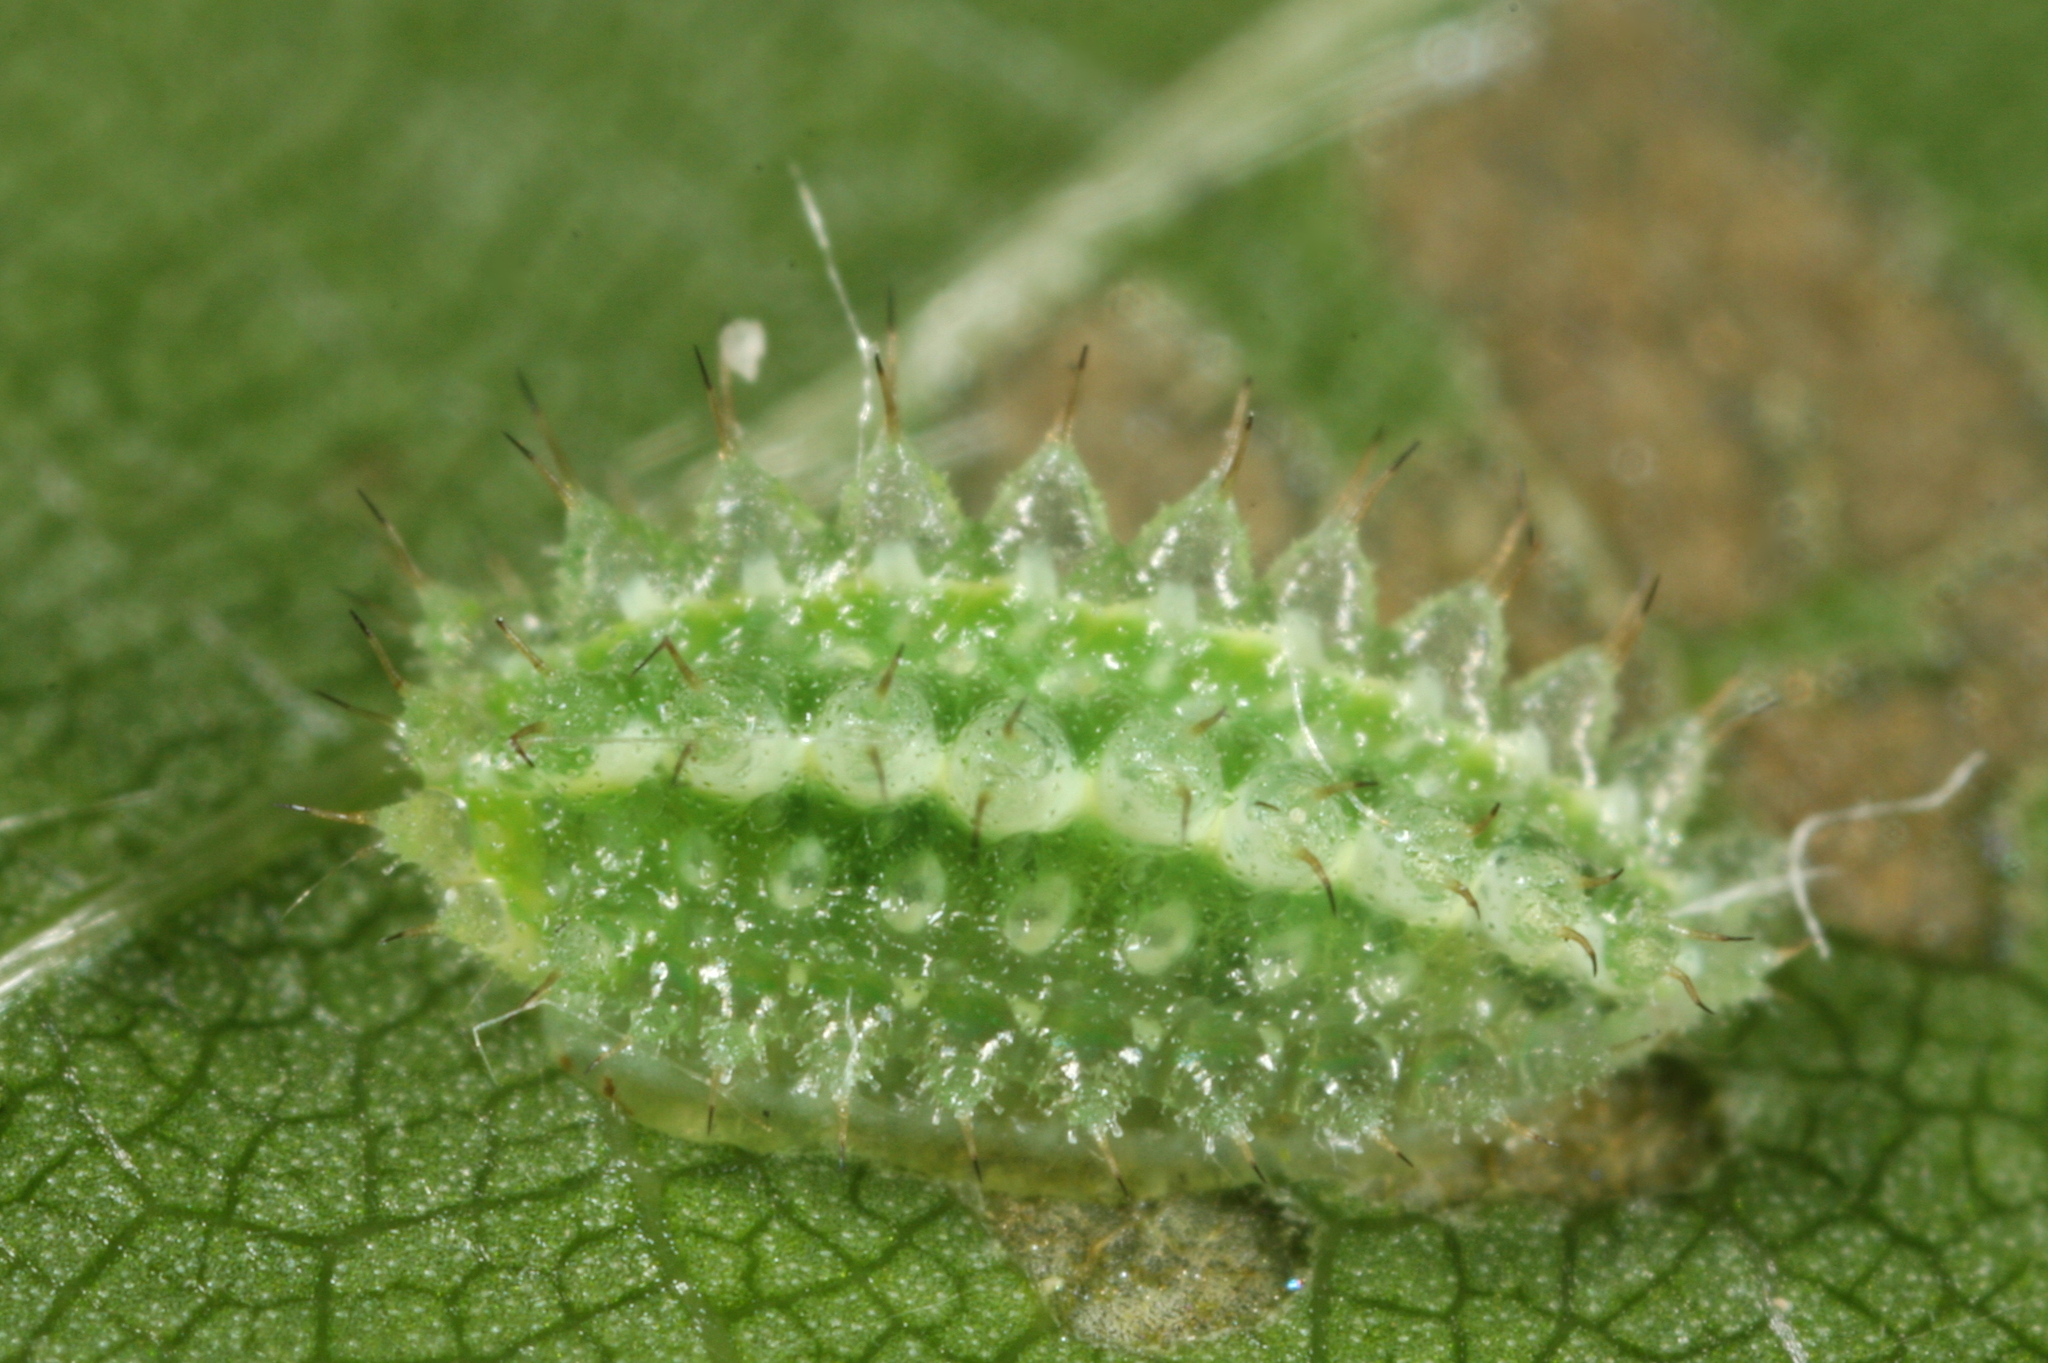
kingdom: Animalia
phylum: Arthropoda
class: Insecta
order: Lepidoptera
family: Limacodidae
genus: Apoda
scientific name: Apoda limacodes
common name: Festoon
